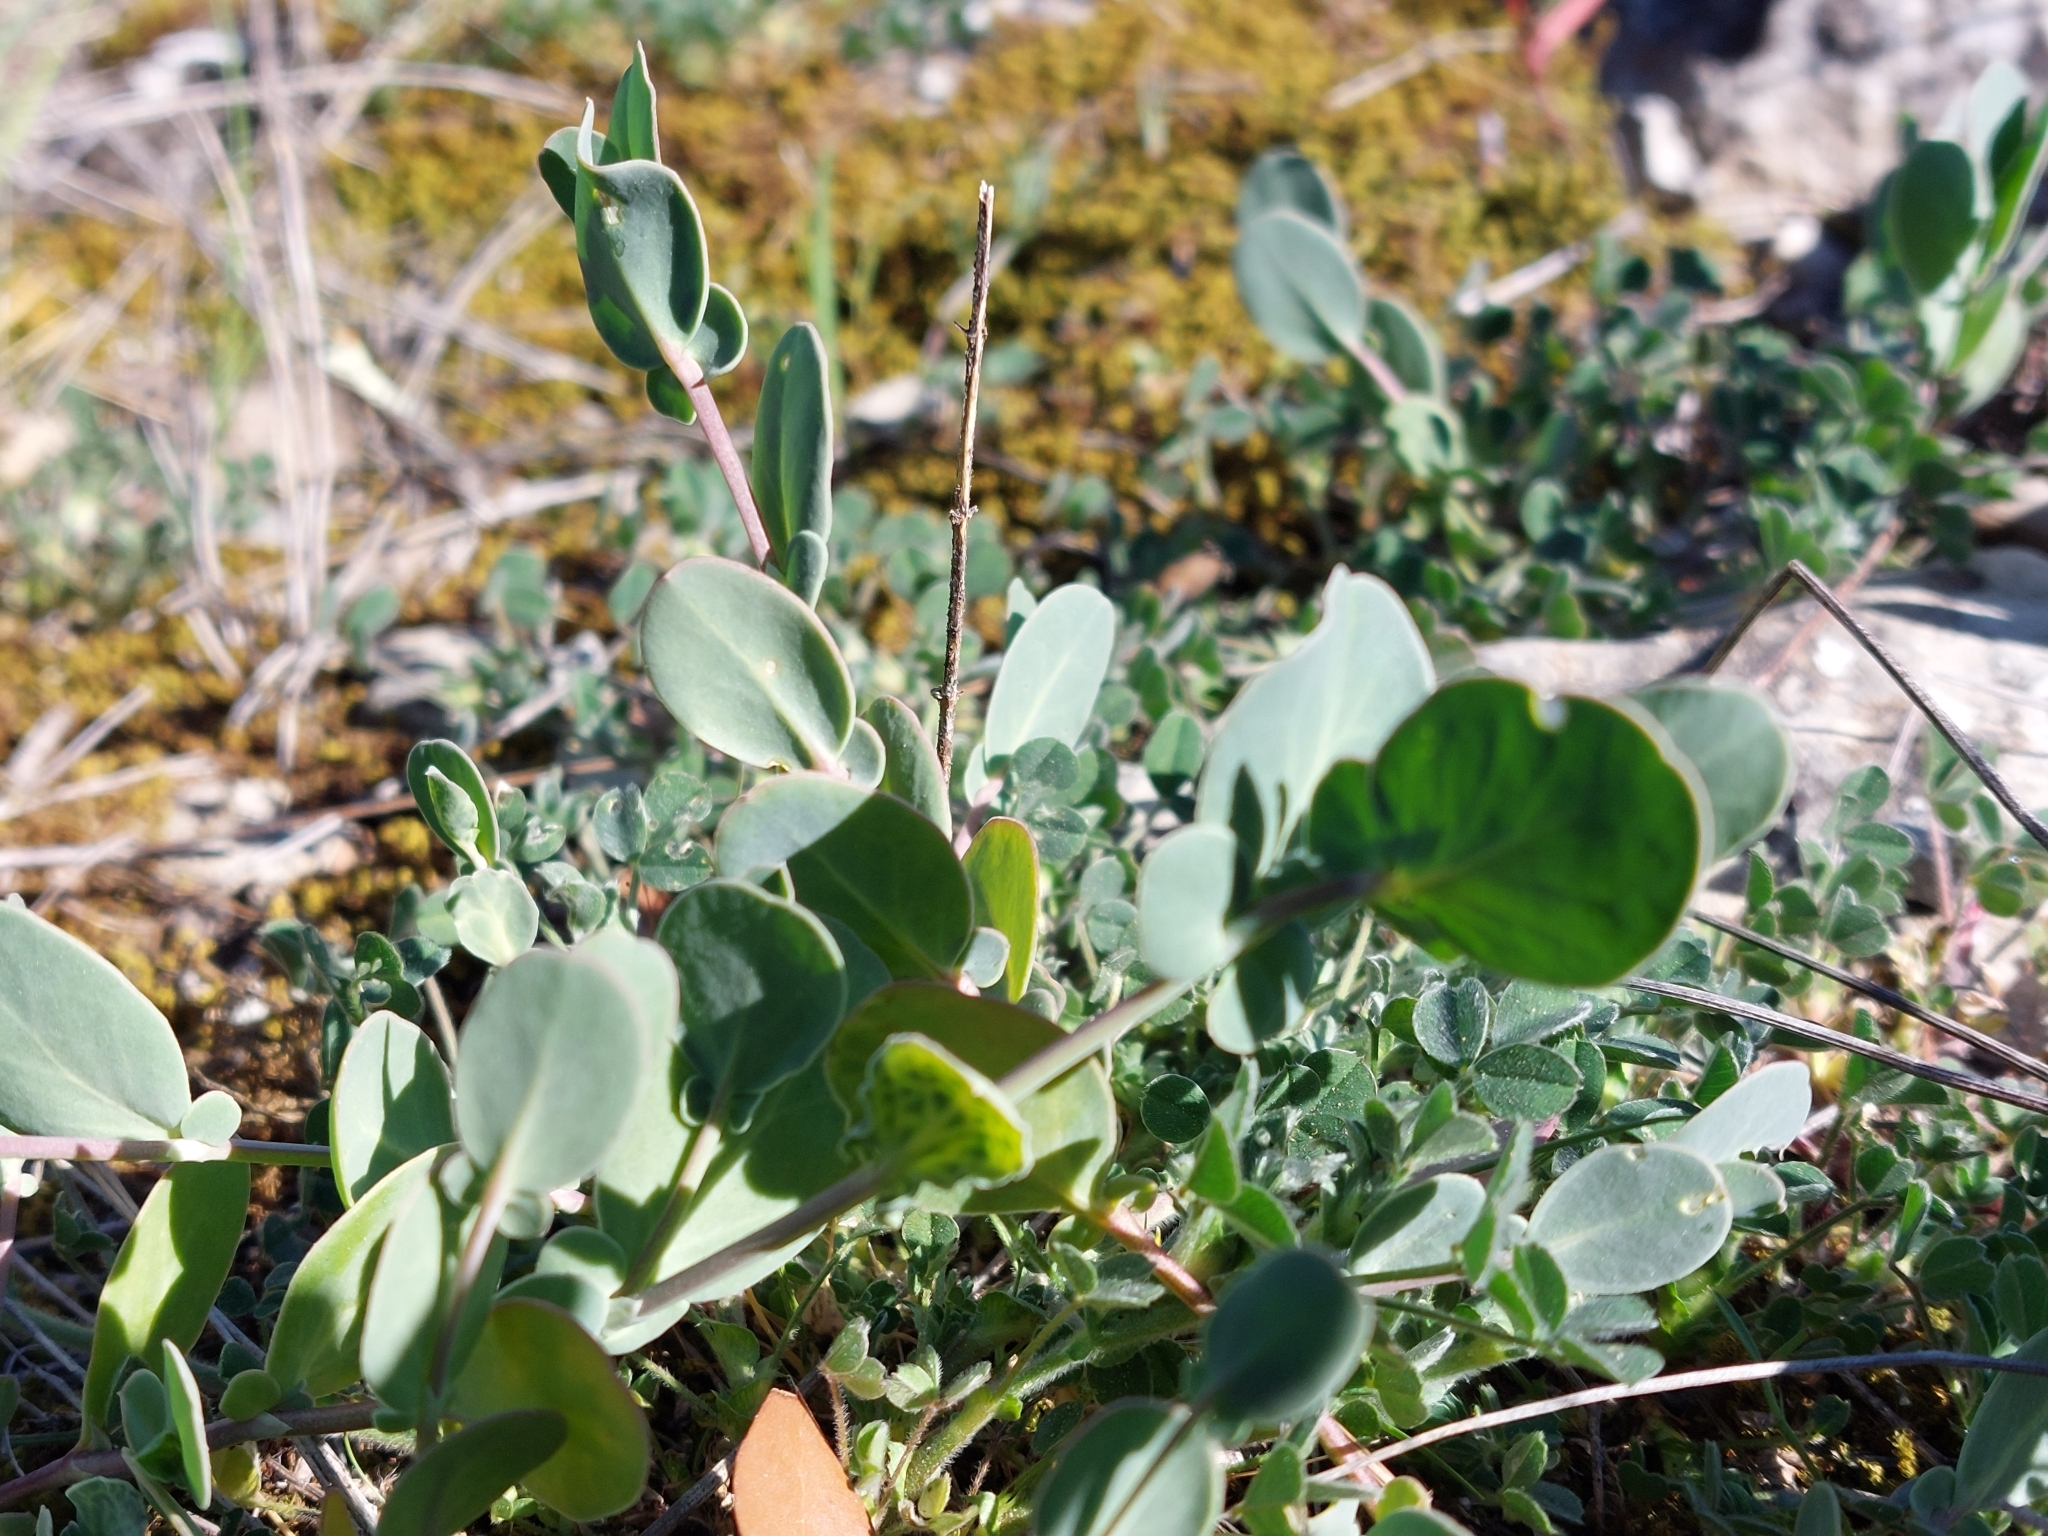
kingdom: Plantae
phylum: Tracheophyta
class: Magnoliopsida
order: Fabales
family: Fabaceae
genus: Coronilla
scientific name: Coronilla scorpioides
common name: Annual scorpion-vetch
